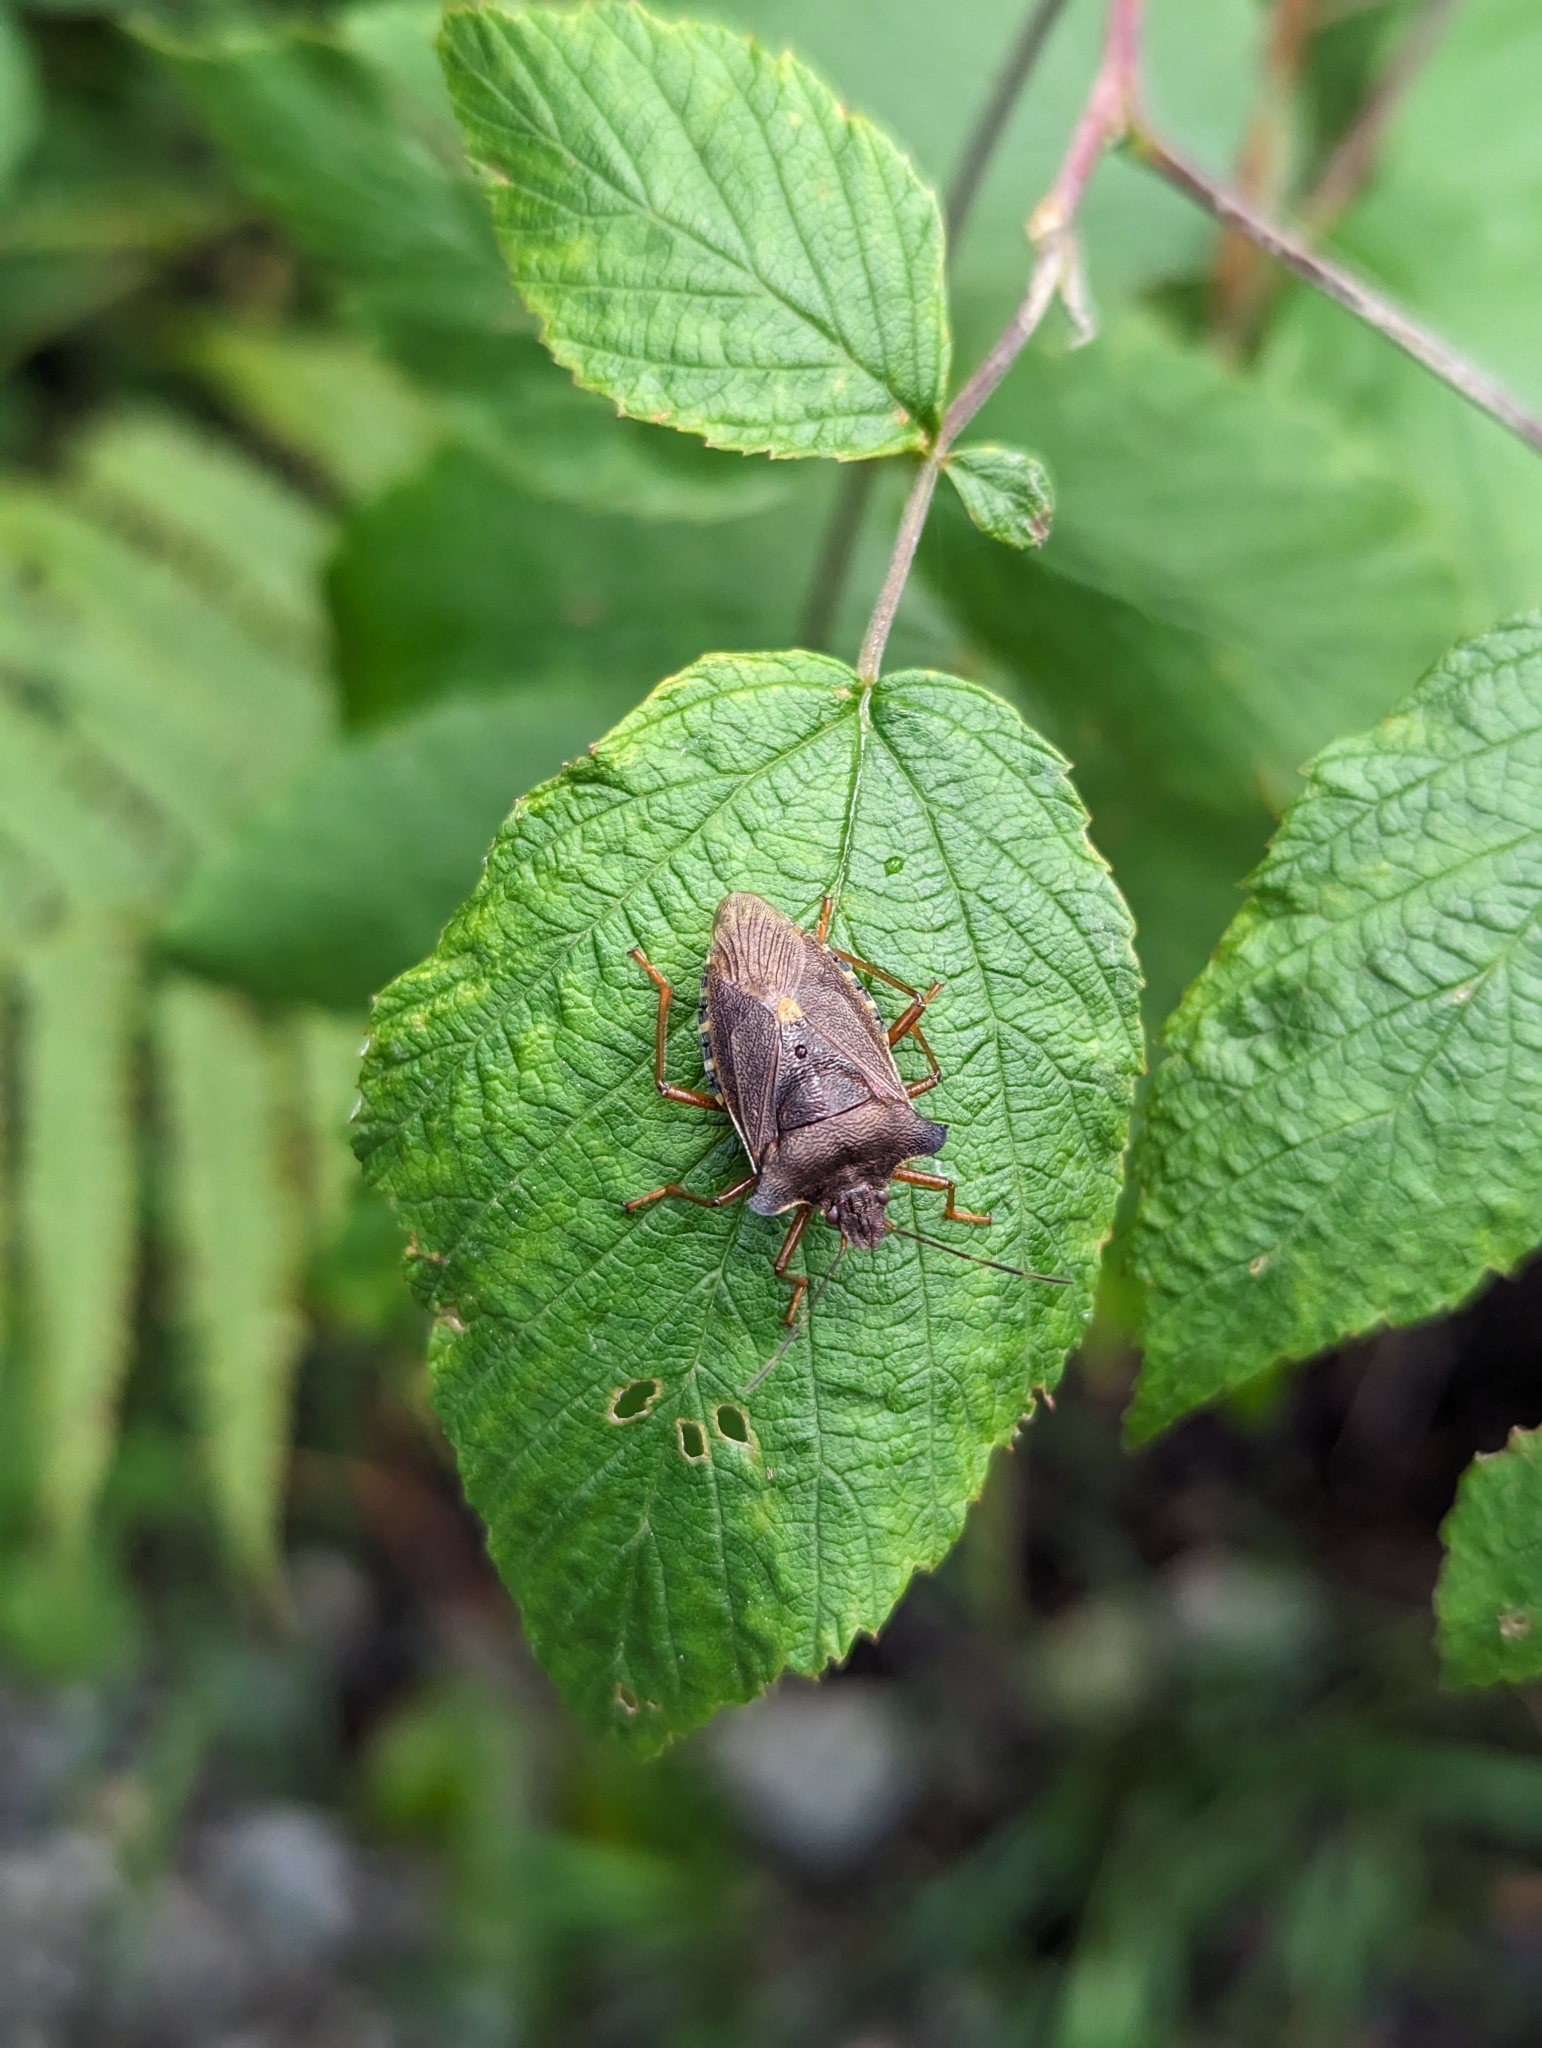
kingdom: Animalia
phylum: Arthropoda
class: Insecta
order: Hemiptera
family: Pentatomidae
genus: Pentatoma
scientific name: Pentatoma rufipes
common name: Forest bug
